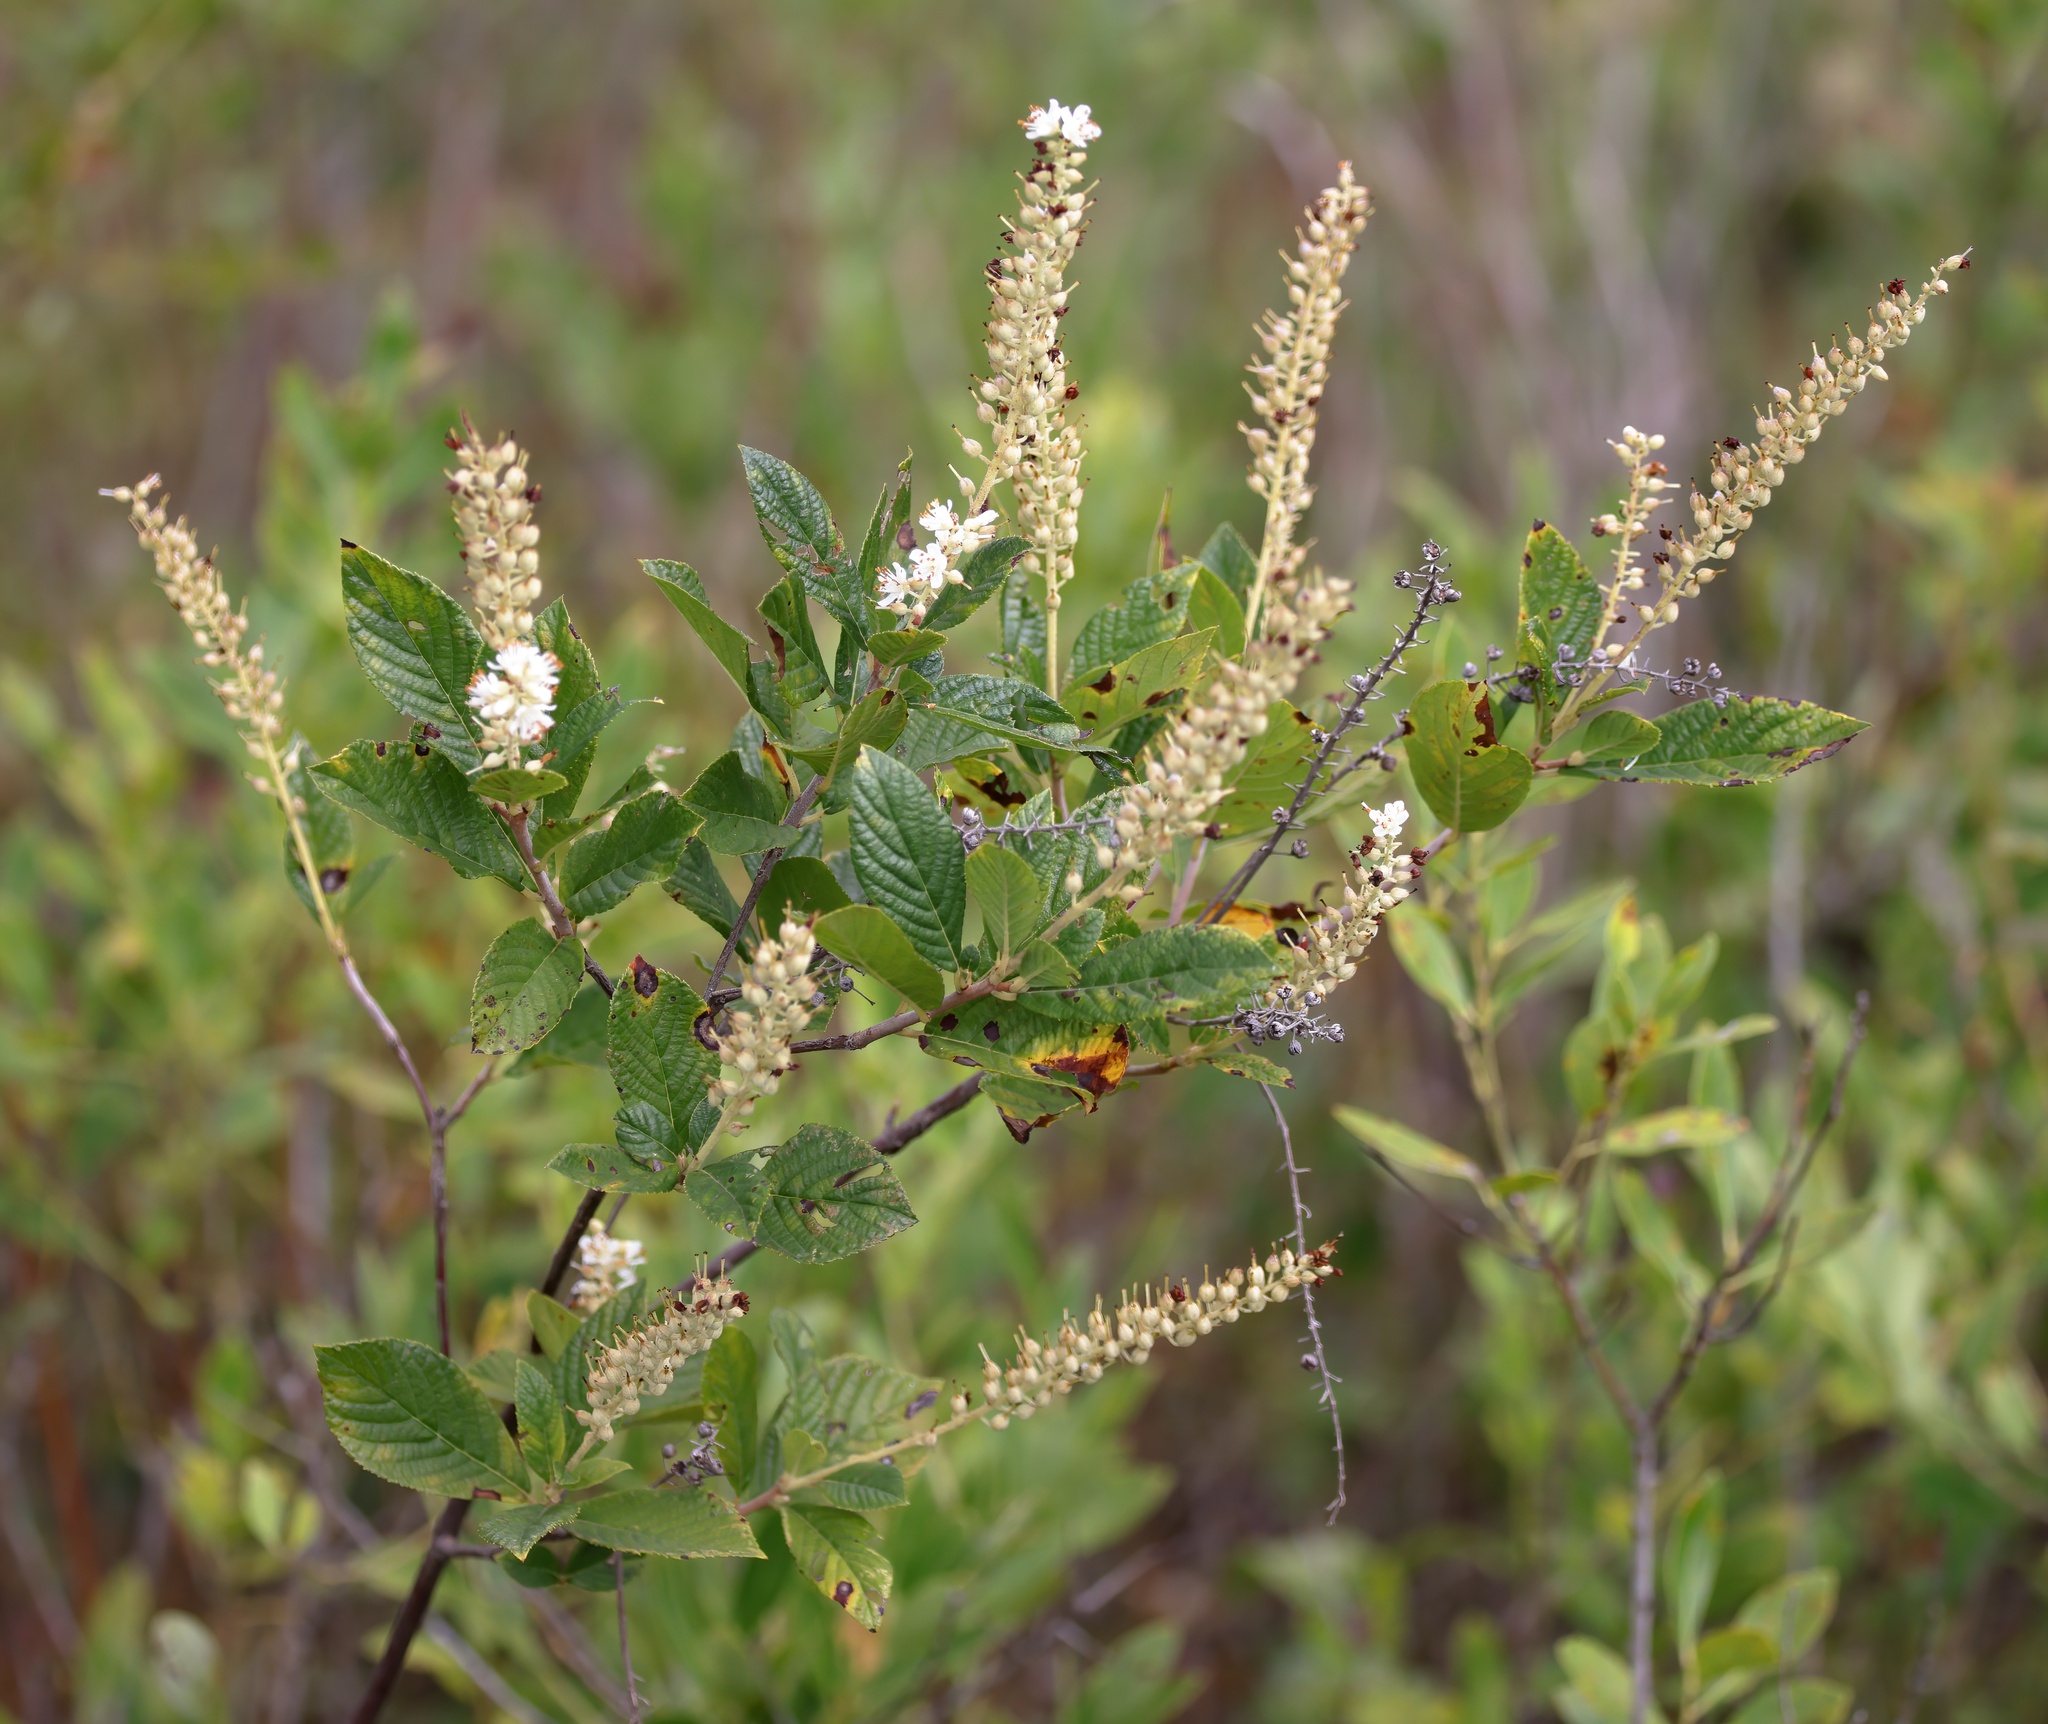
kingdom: Plantae
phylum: Tracheophyta
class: Magnoliopsida
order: Ericales
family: Clethraceae
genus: Clethra
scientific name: Clethra tomentosa
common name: Downy sweet pepperbush
